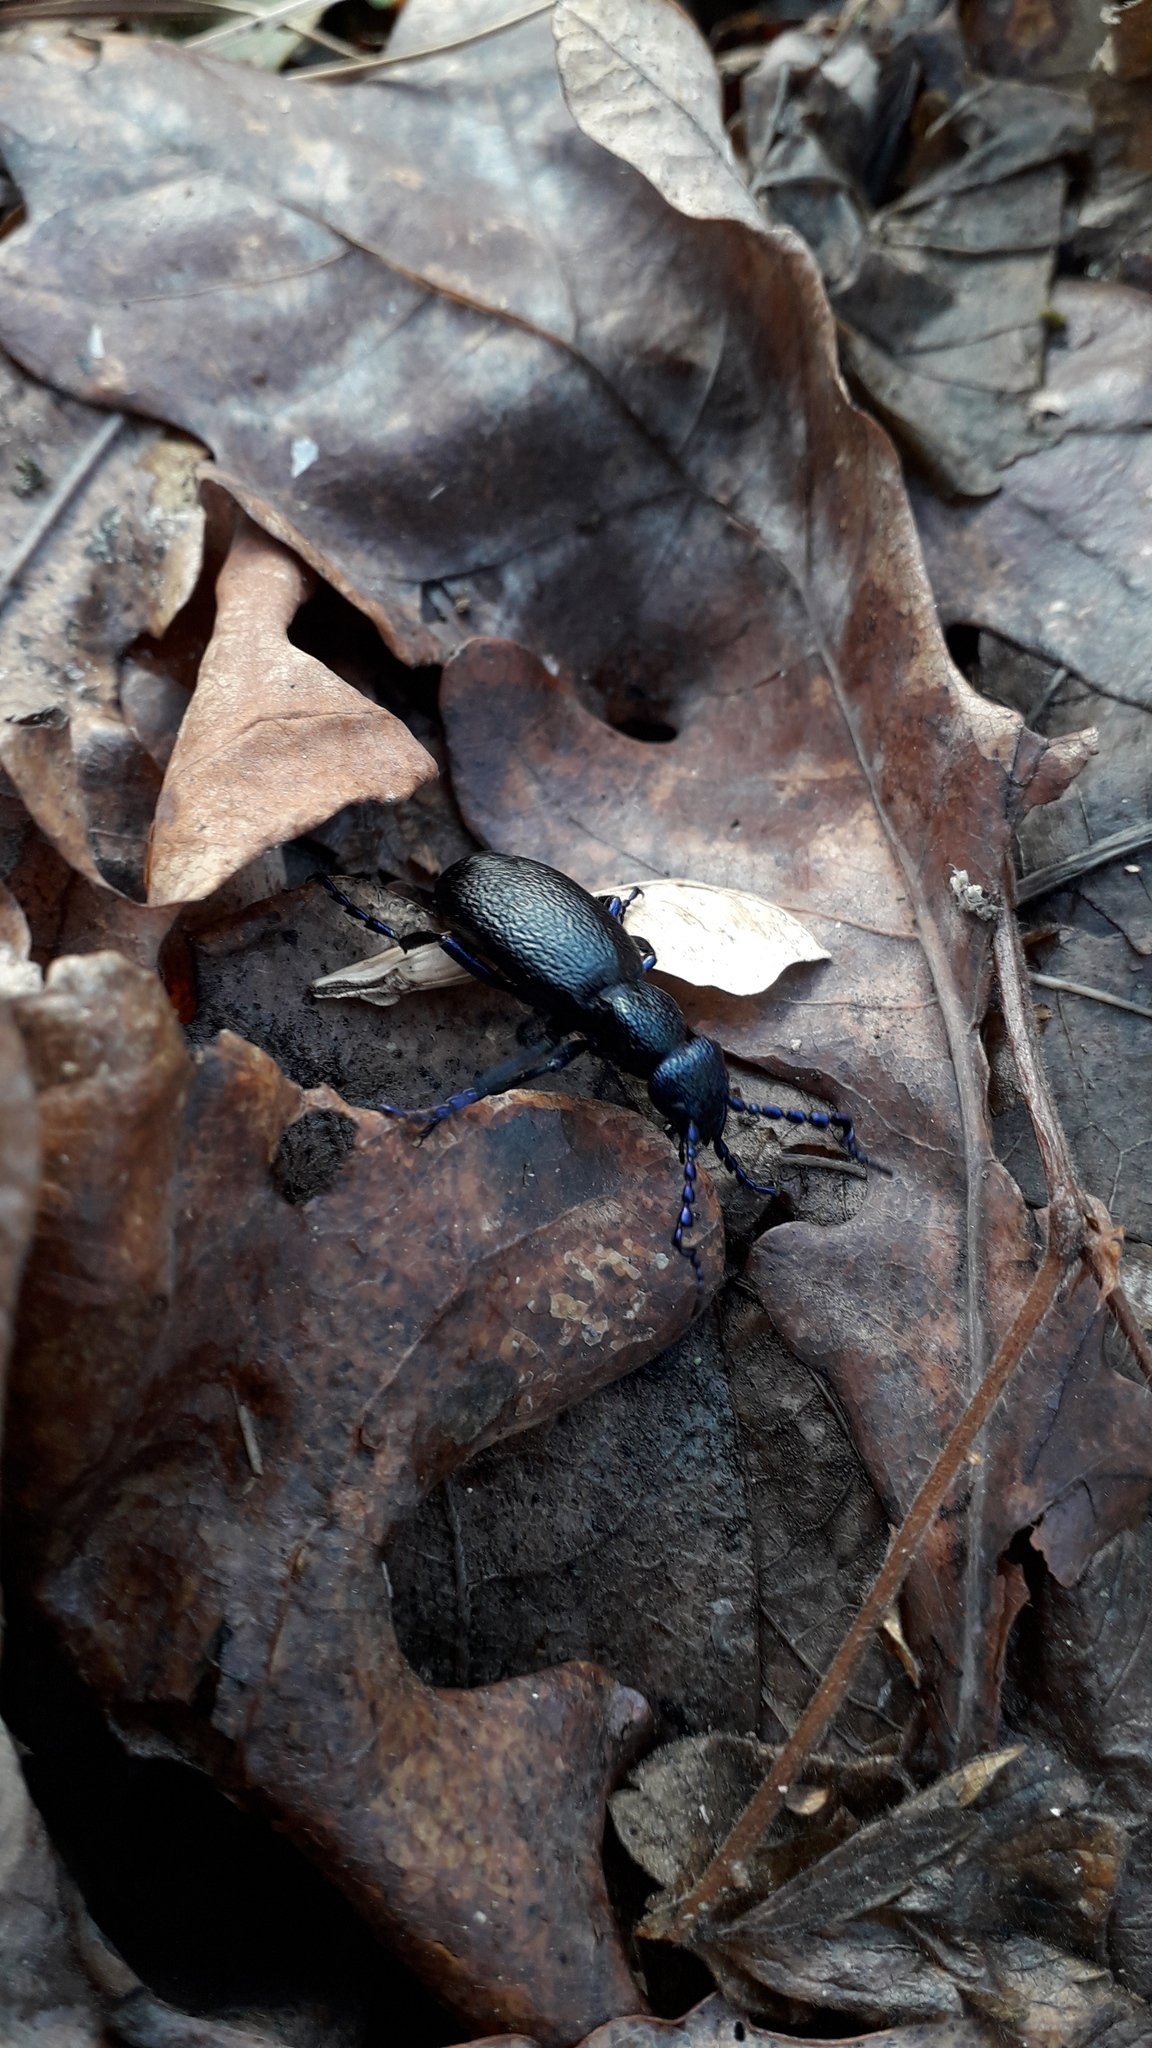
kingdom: Animalia
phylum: Arthropoda
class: Insecta
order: Coleoptera
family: Meloidae
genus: Meloe
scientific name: Meloe proscarabaeus
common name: Black oil-beetle
